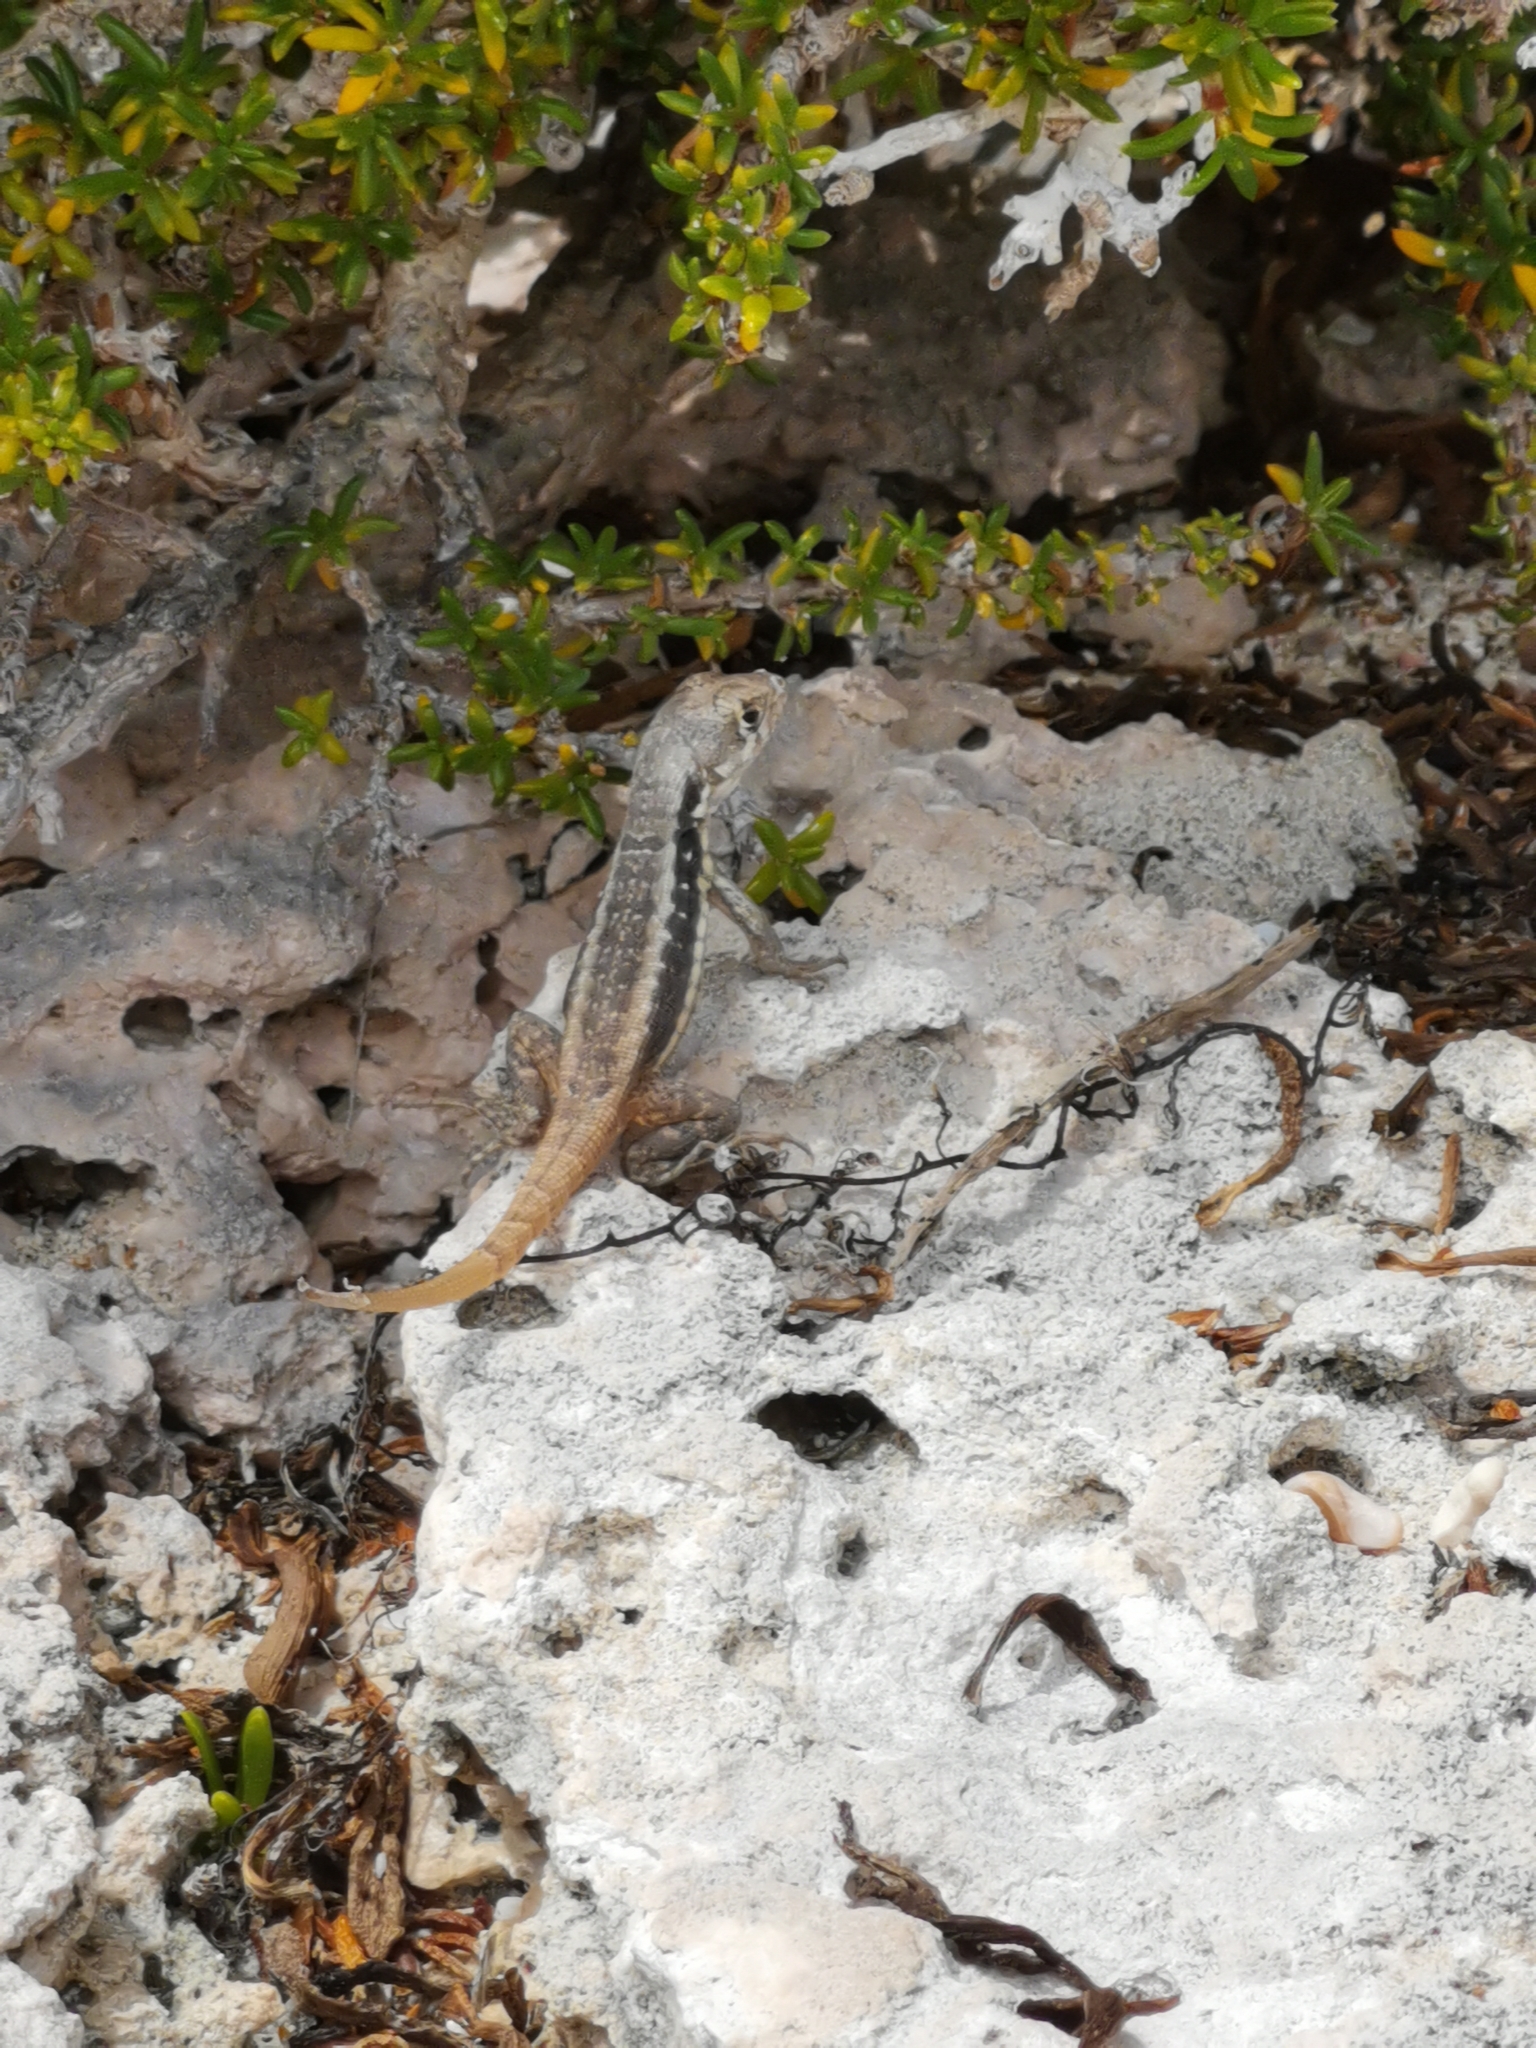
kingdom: Animalia
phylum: Chordata
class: Squamata
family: Leiocephalidae
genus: Leiocephalus
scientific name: Leiocephalus psammodromus
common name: Bastion cay curlytail lizard
